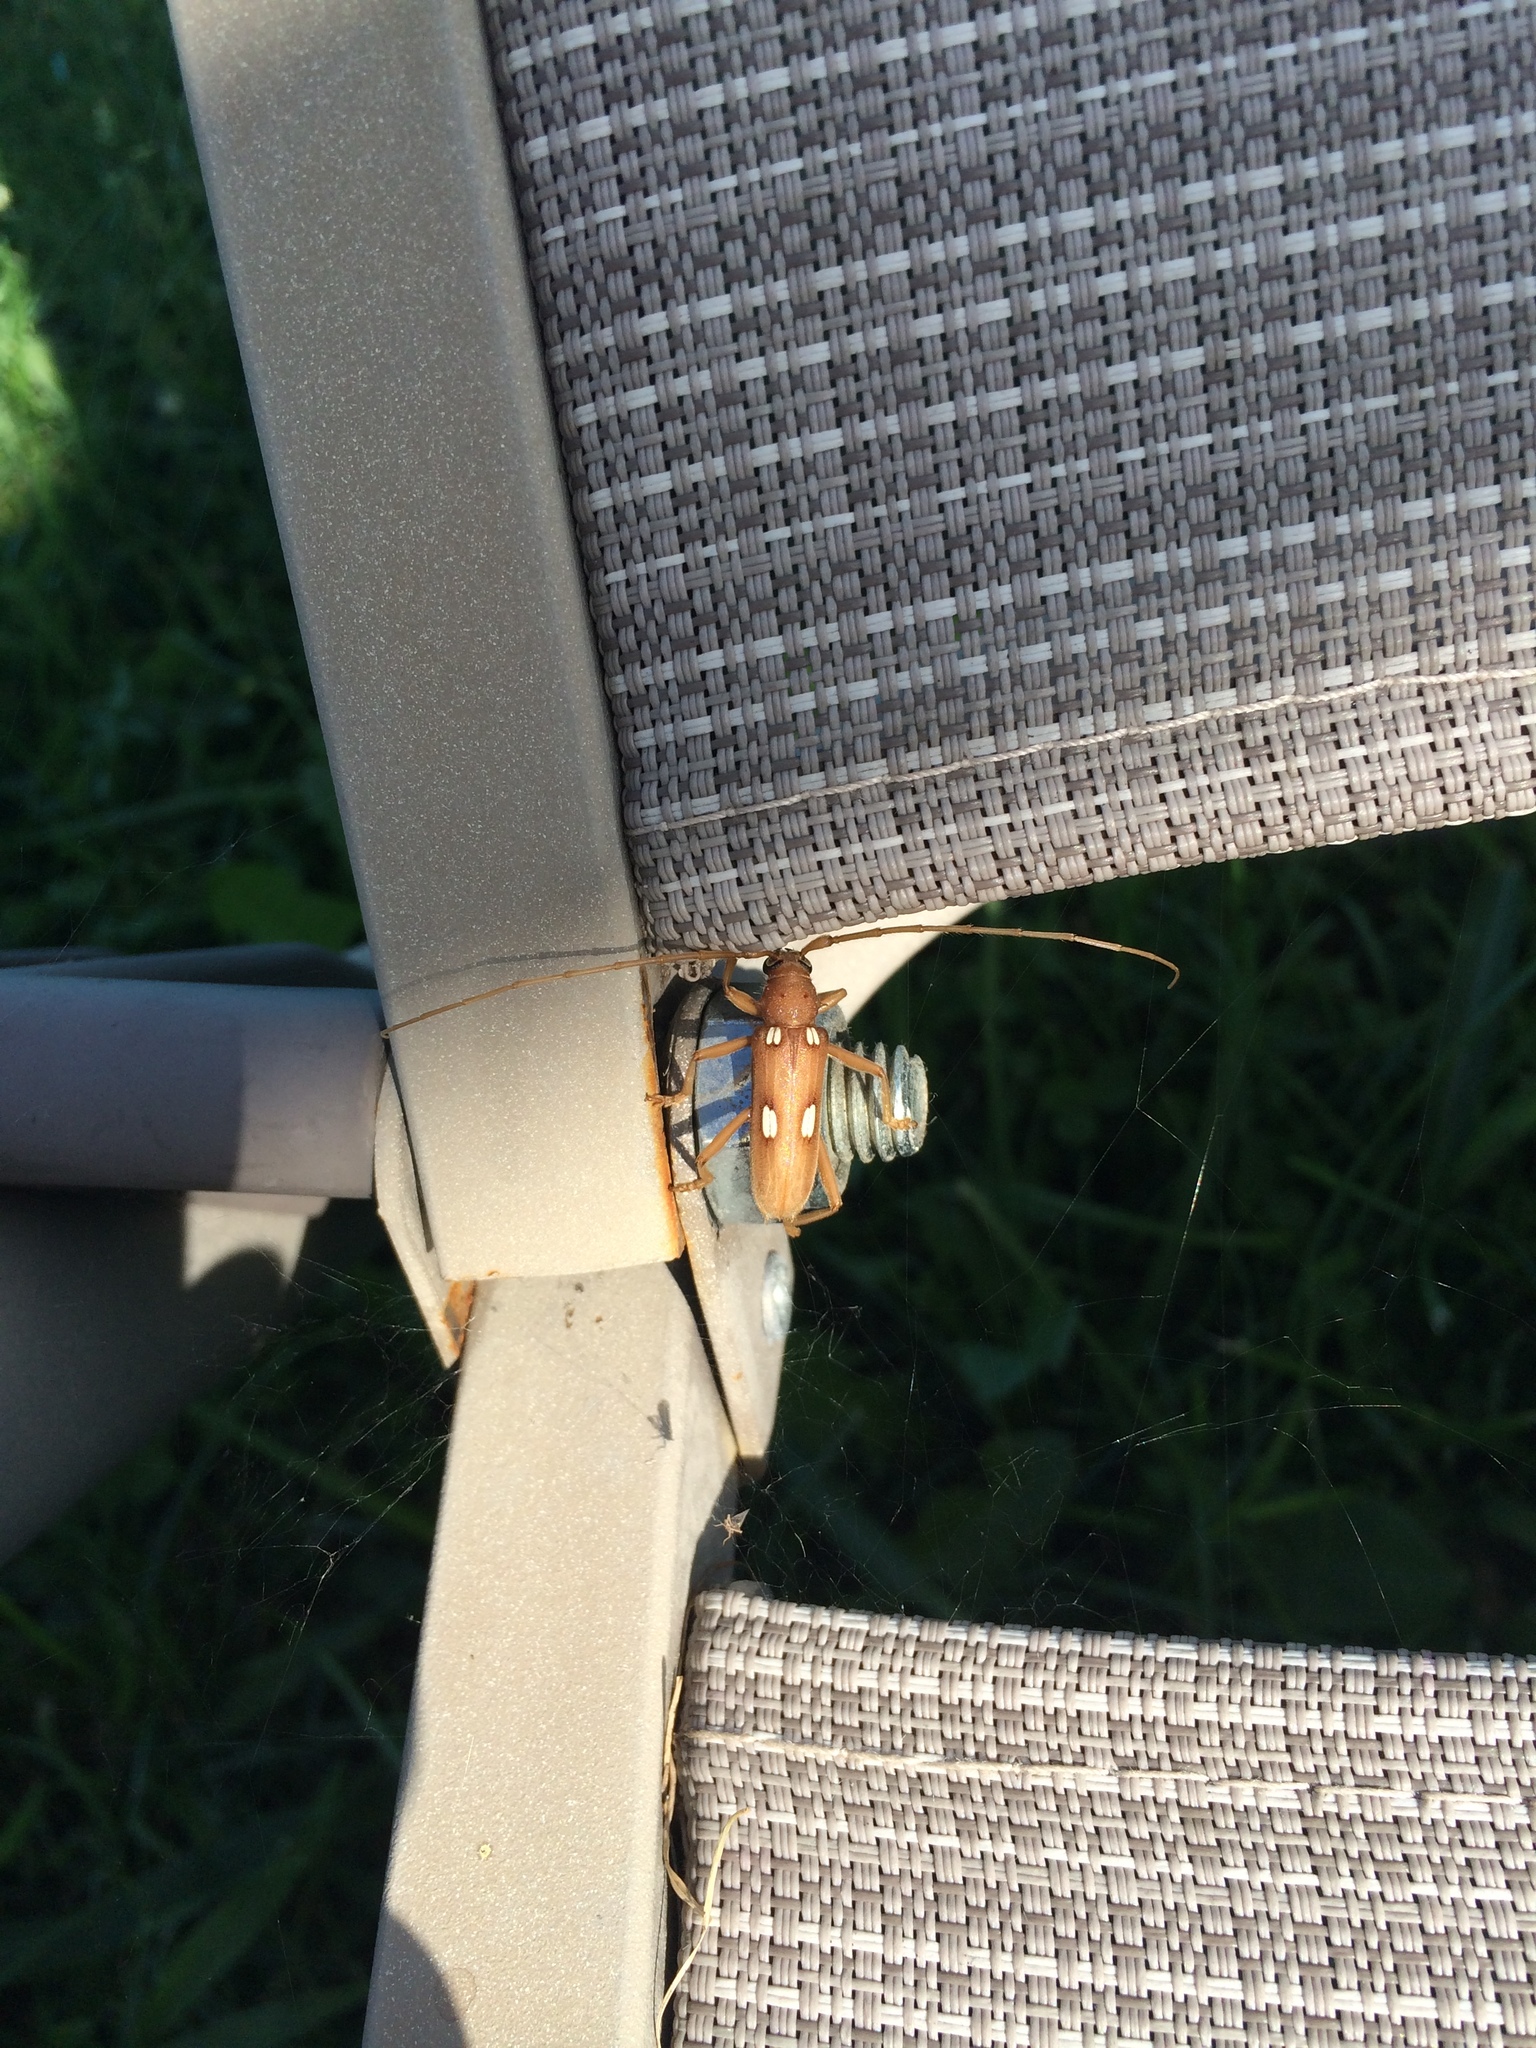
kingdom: Animalia
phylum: Arthropoda
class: Insecta
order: Coleoptera
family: Cerambycidae
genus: Eburia
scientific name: Eburia quadrigeminata
